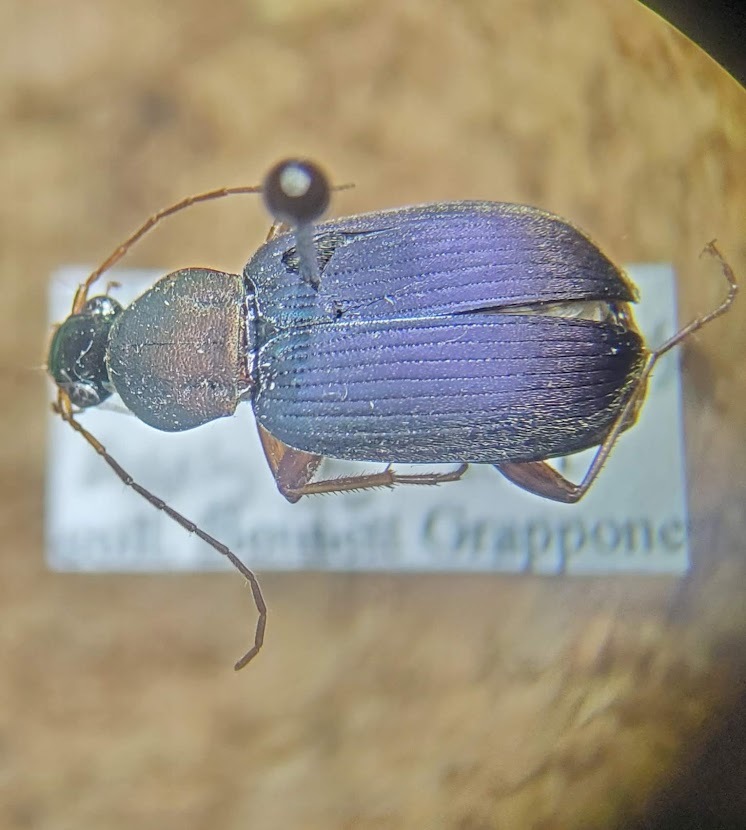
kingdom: Animalia
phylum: Arthropoda
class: Insecta
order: Coleoptera
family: Carabidae
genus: Chlaenius
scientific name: Chlaenius nemoralis
